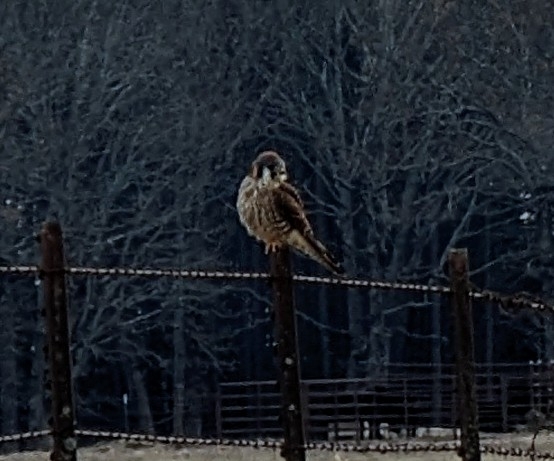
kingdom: Animalia
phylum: Chordata
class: Aves
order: Falconiformes
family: Falconidae
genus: Falco
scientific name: Falco sparverius
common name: American kestrel
